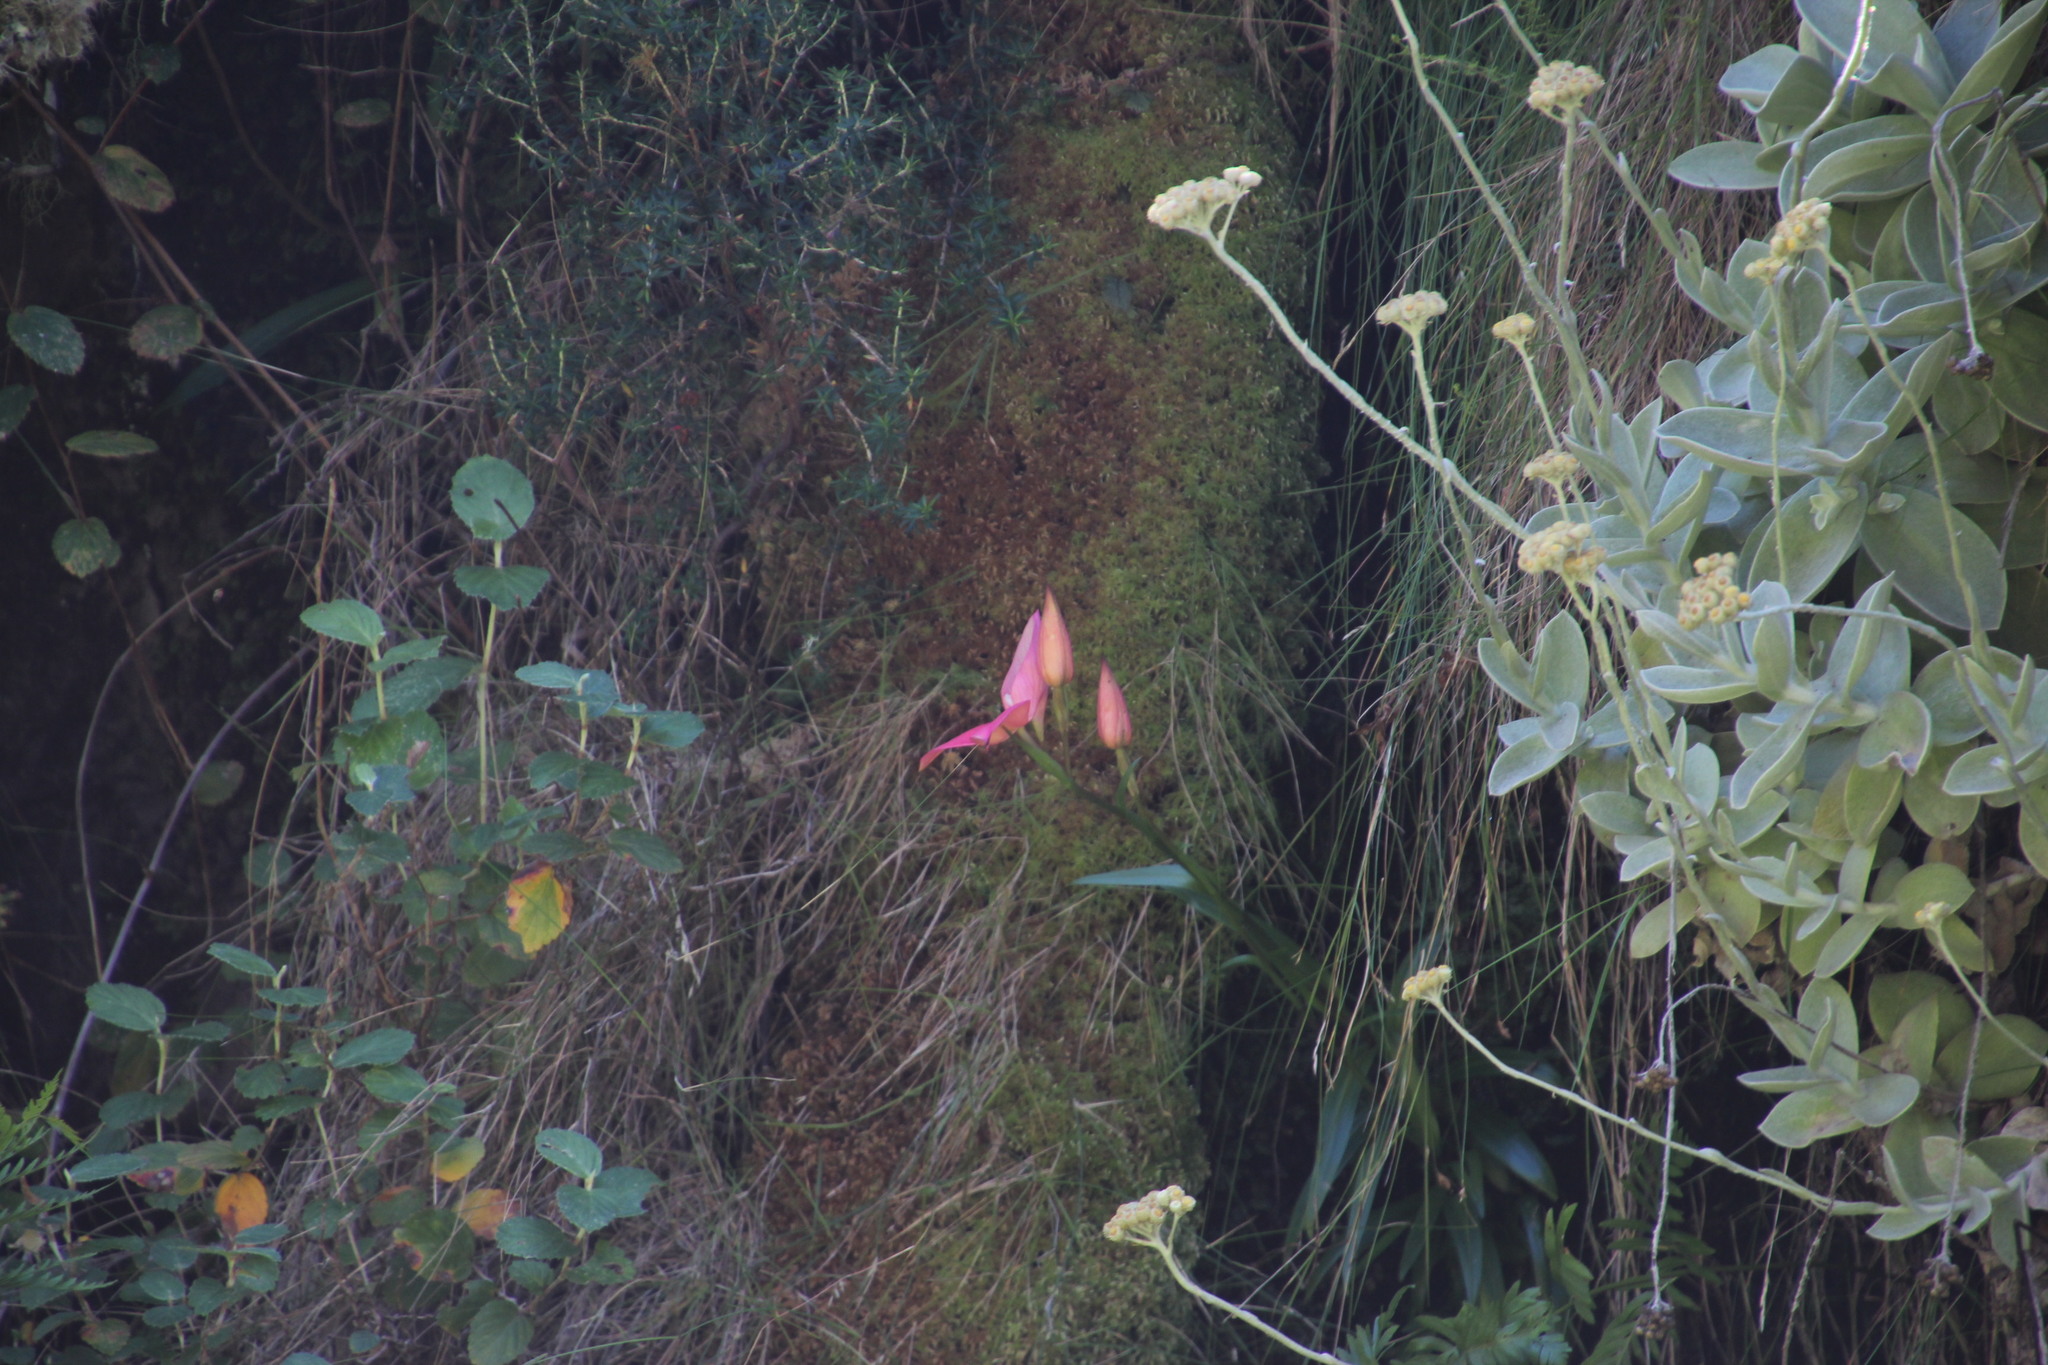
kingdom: Plantae
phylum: Tracheophyta
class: Liliopsida
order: Asparagales
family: Orchidaceae
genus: Disa
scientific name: Disa uniflora
